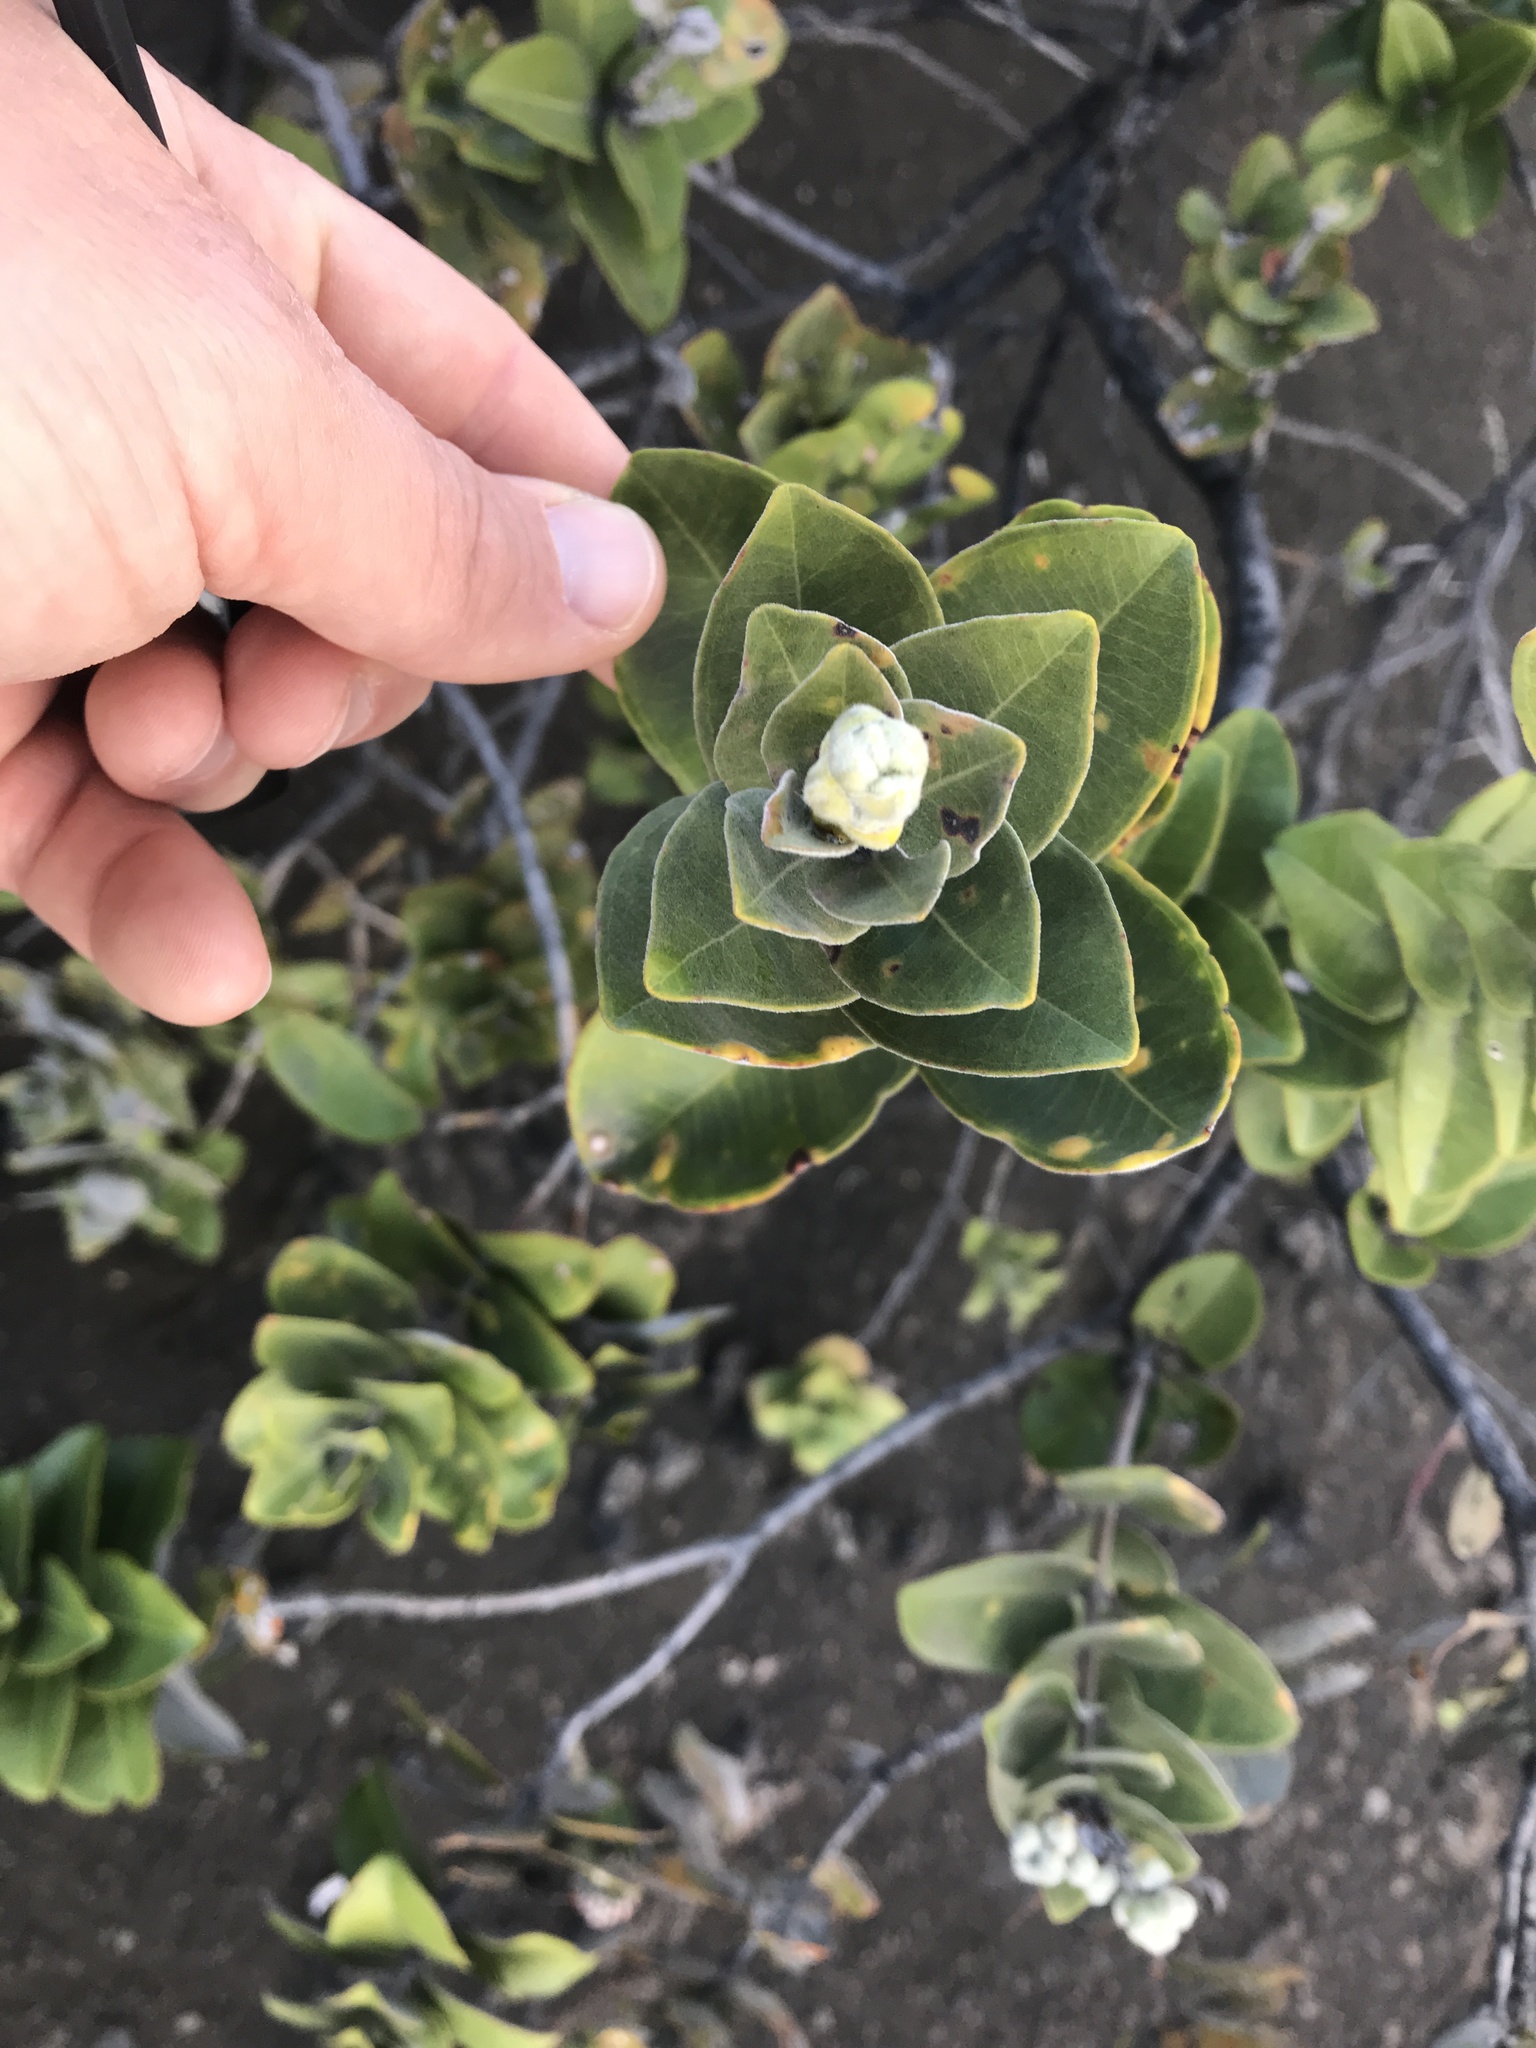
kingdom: Plantae
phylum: Tracheophyta
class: Magnoliopsida
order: Myrtales
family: Myrtaceae
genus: Metrosideros
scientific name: Metrosideros polymorpha
